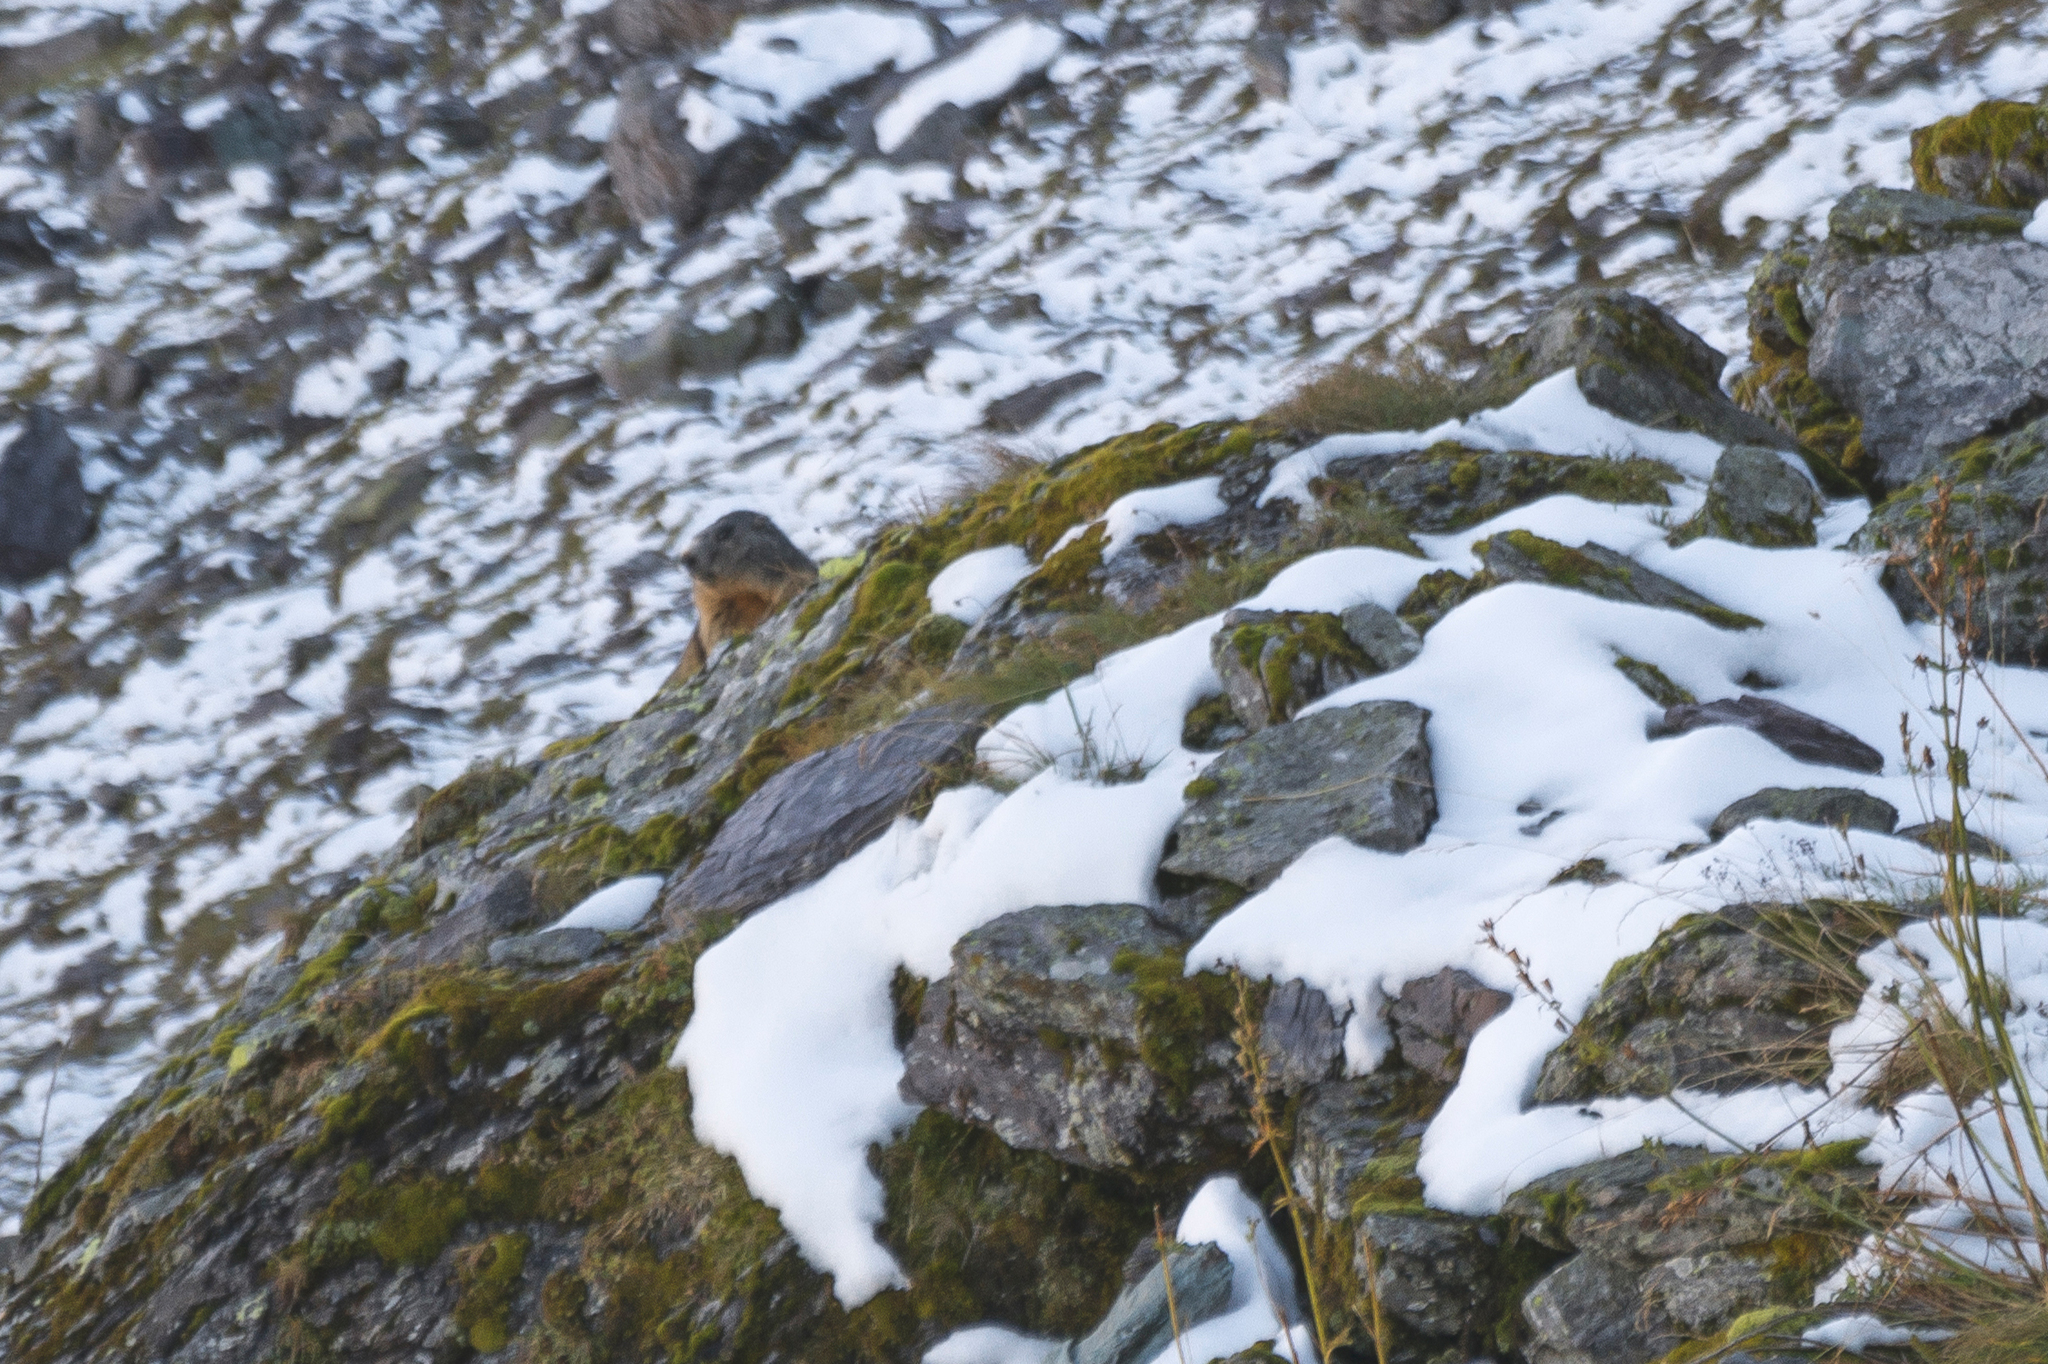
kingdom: Animalia
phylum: Chordata
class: Mammalia
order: Rodentia
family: Sciuridae
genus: Marmota
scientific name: Marmota marmota
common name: Alpine marmot
